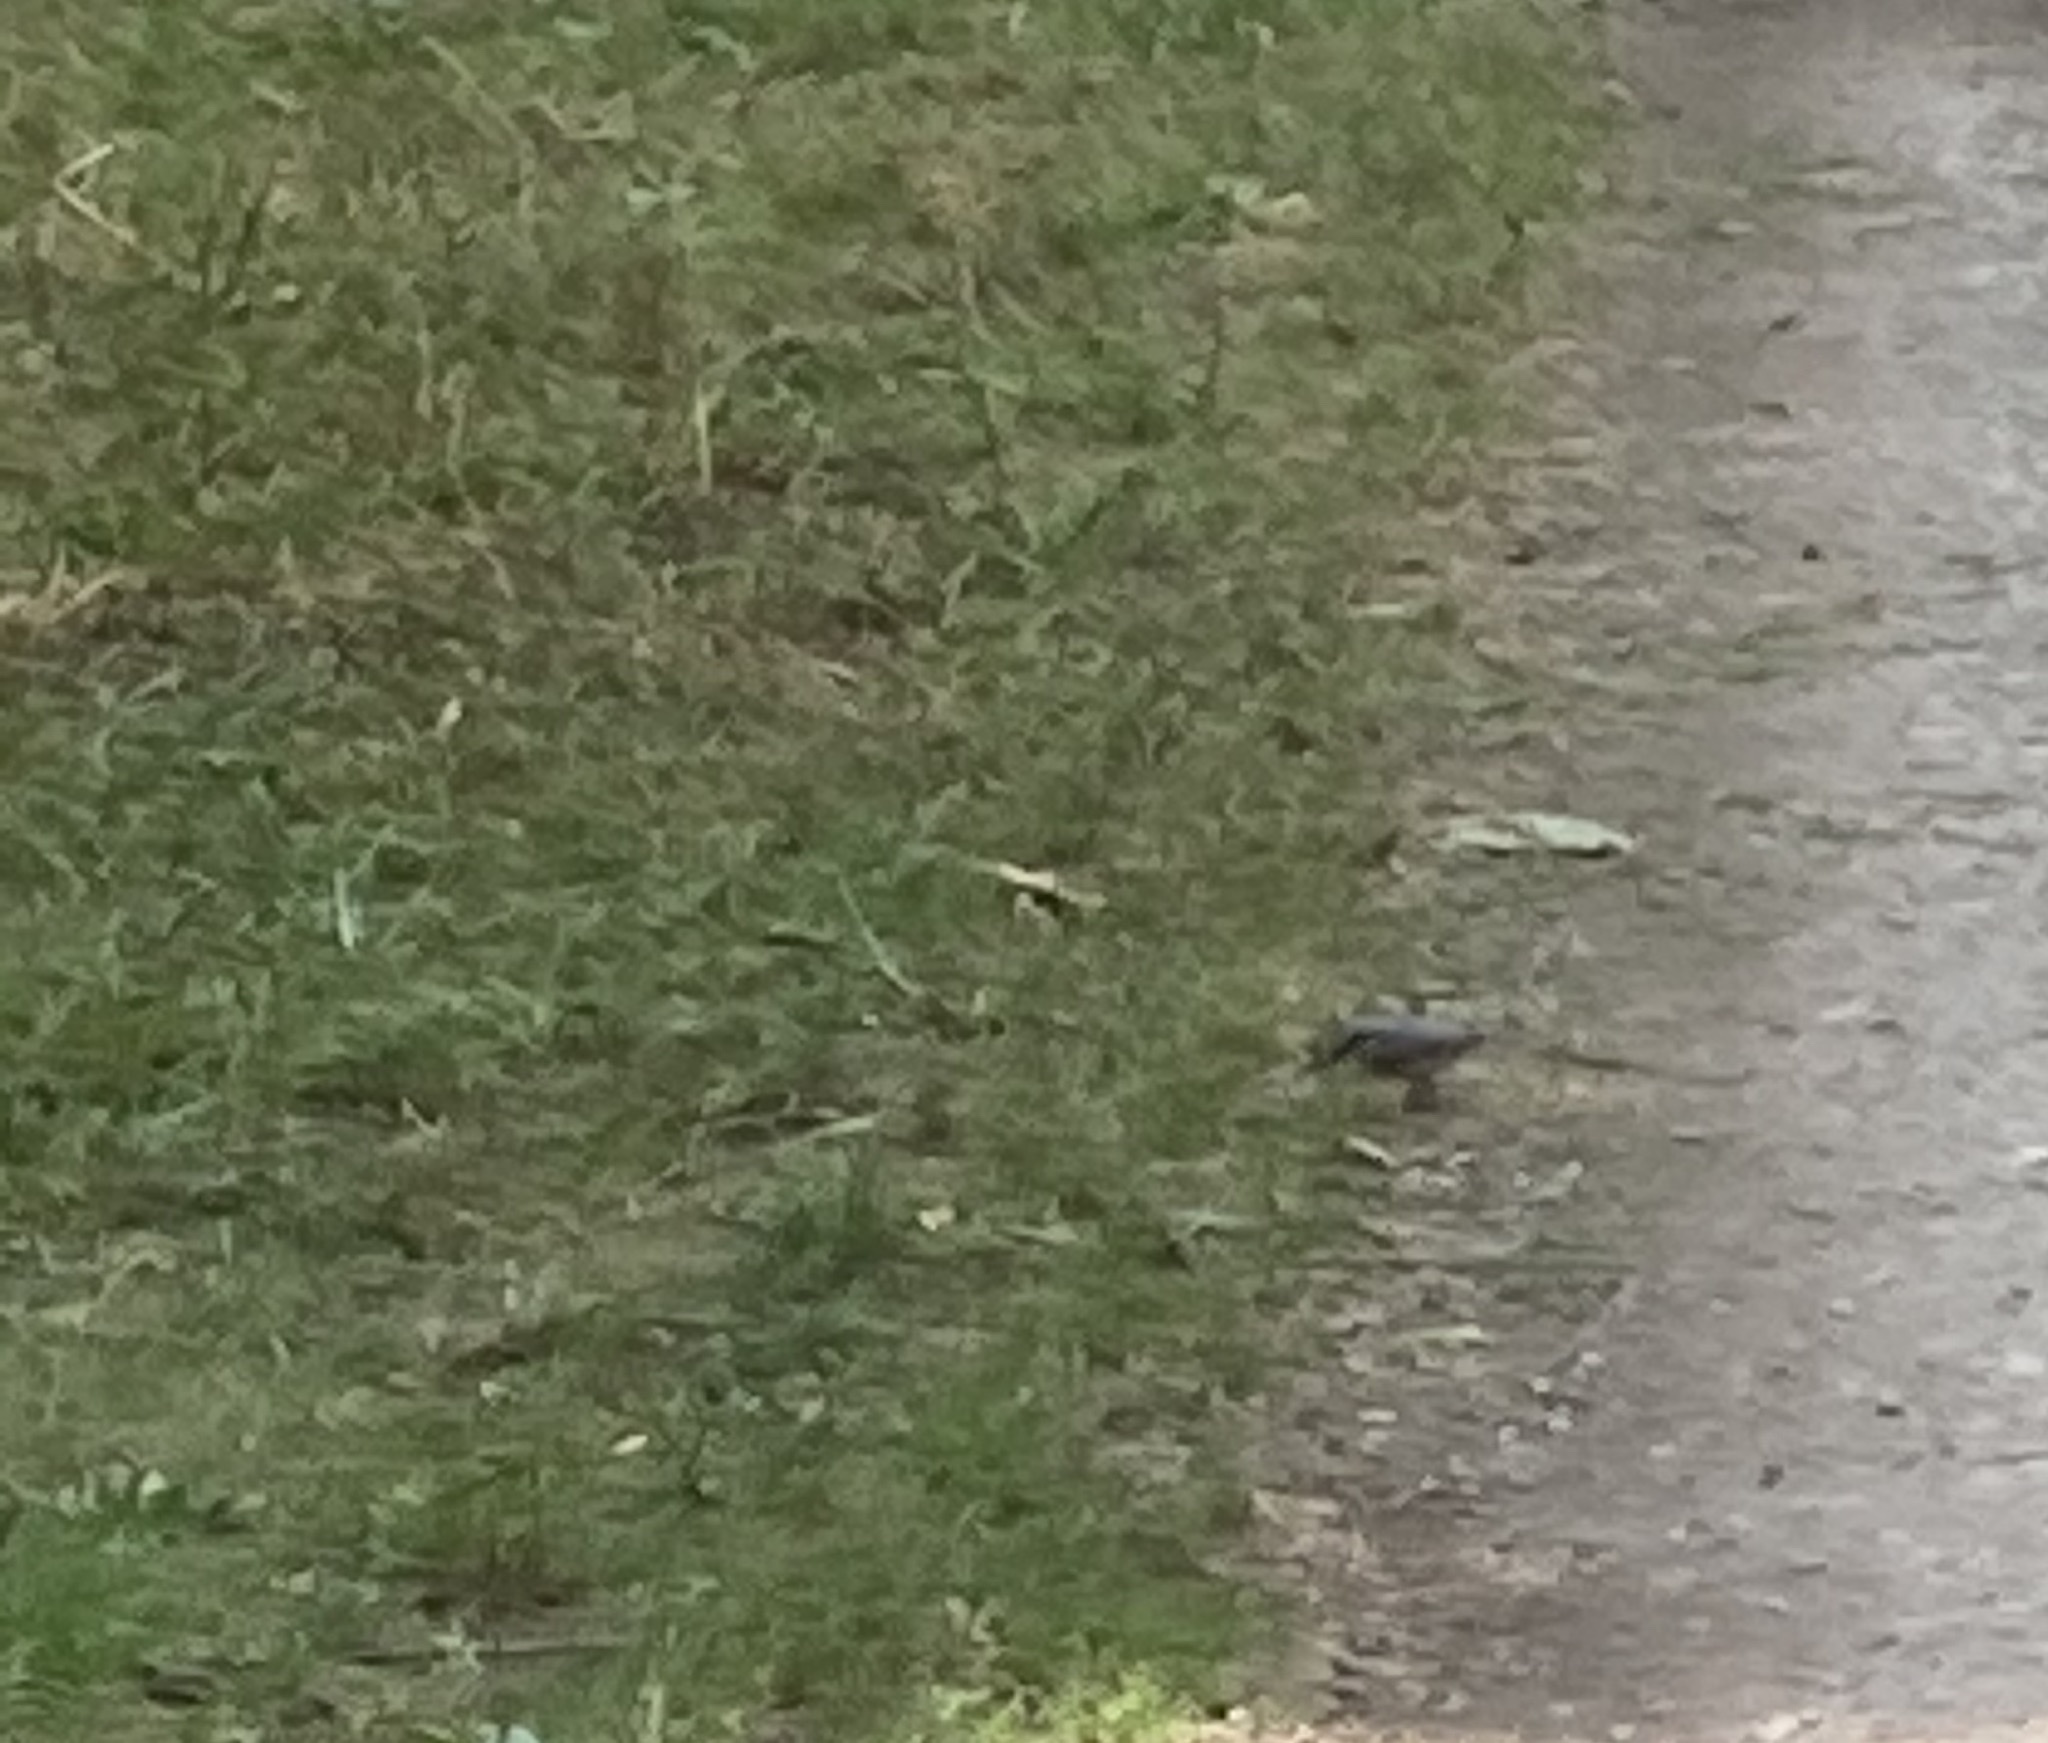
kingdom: Animalia
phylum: Chordata
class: Aves
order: Passeriformes
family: Sittidae
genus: Sitta
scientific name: Sitta europaea
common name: Eurasian nuthatch
